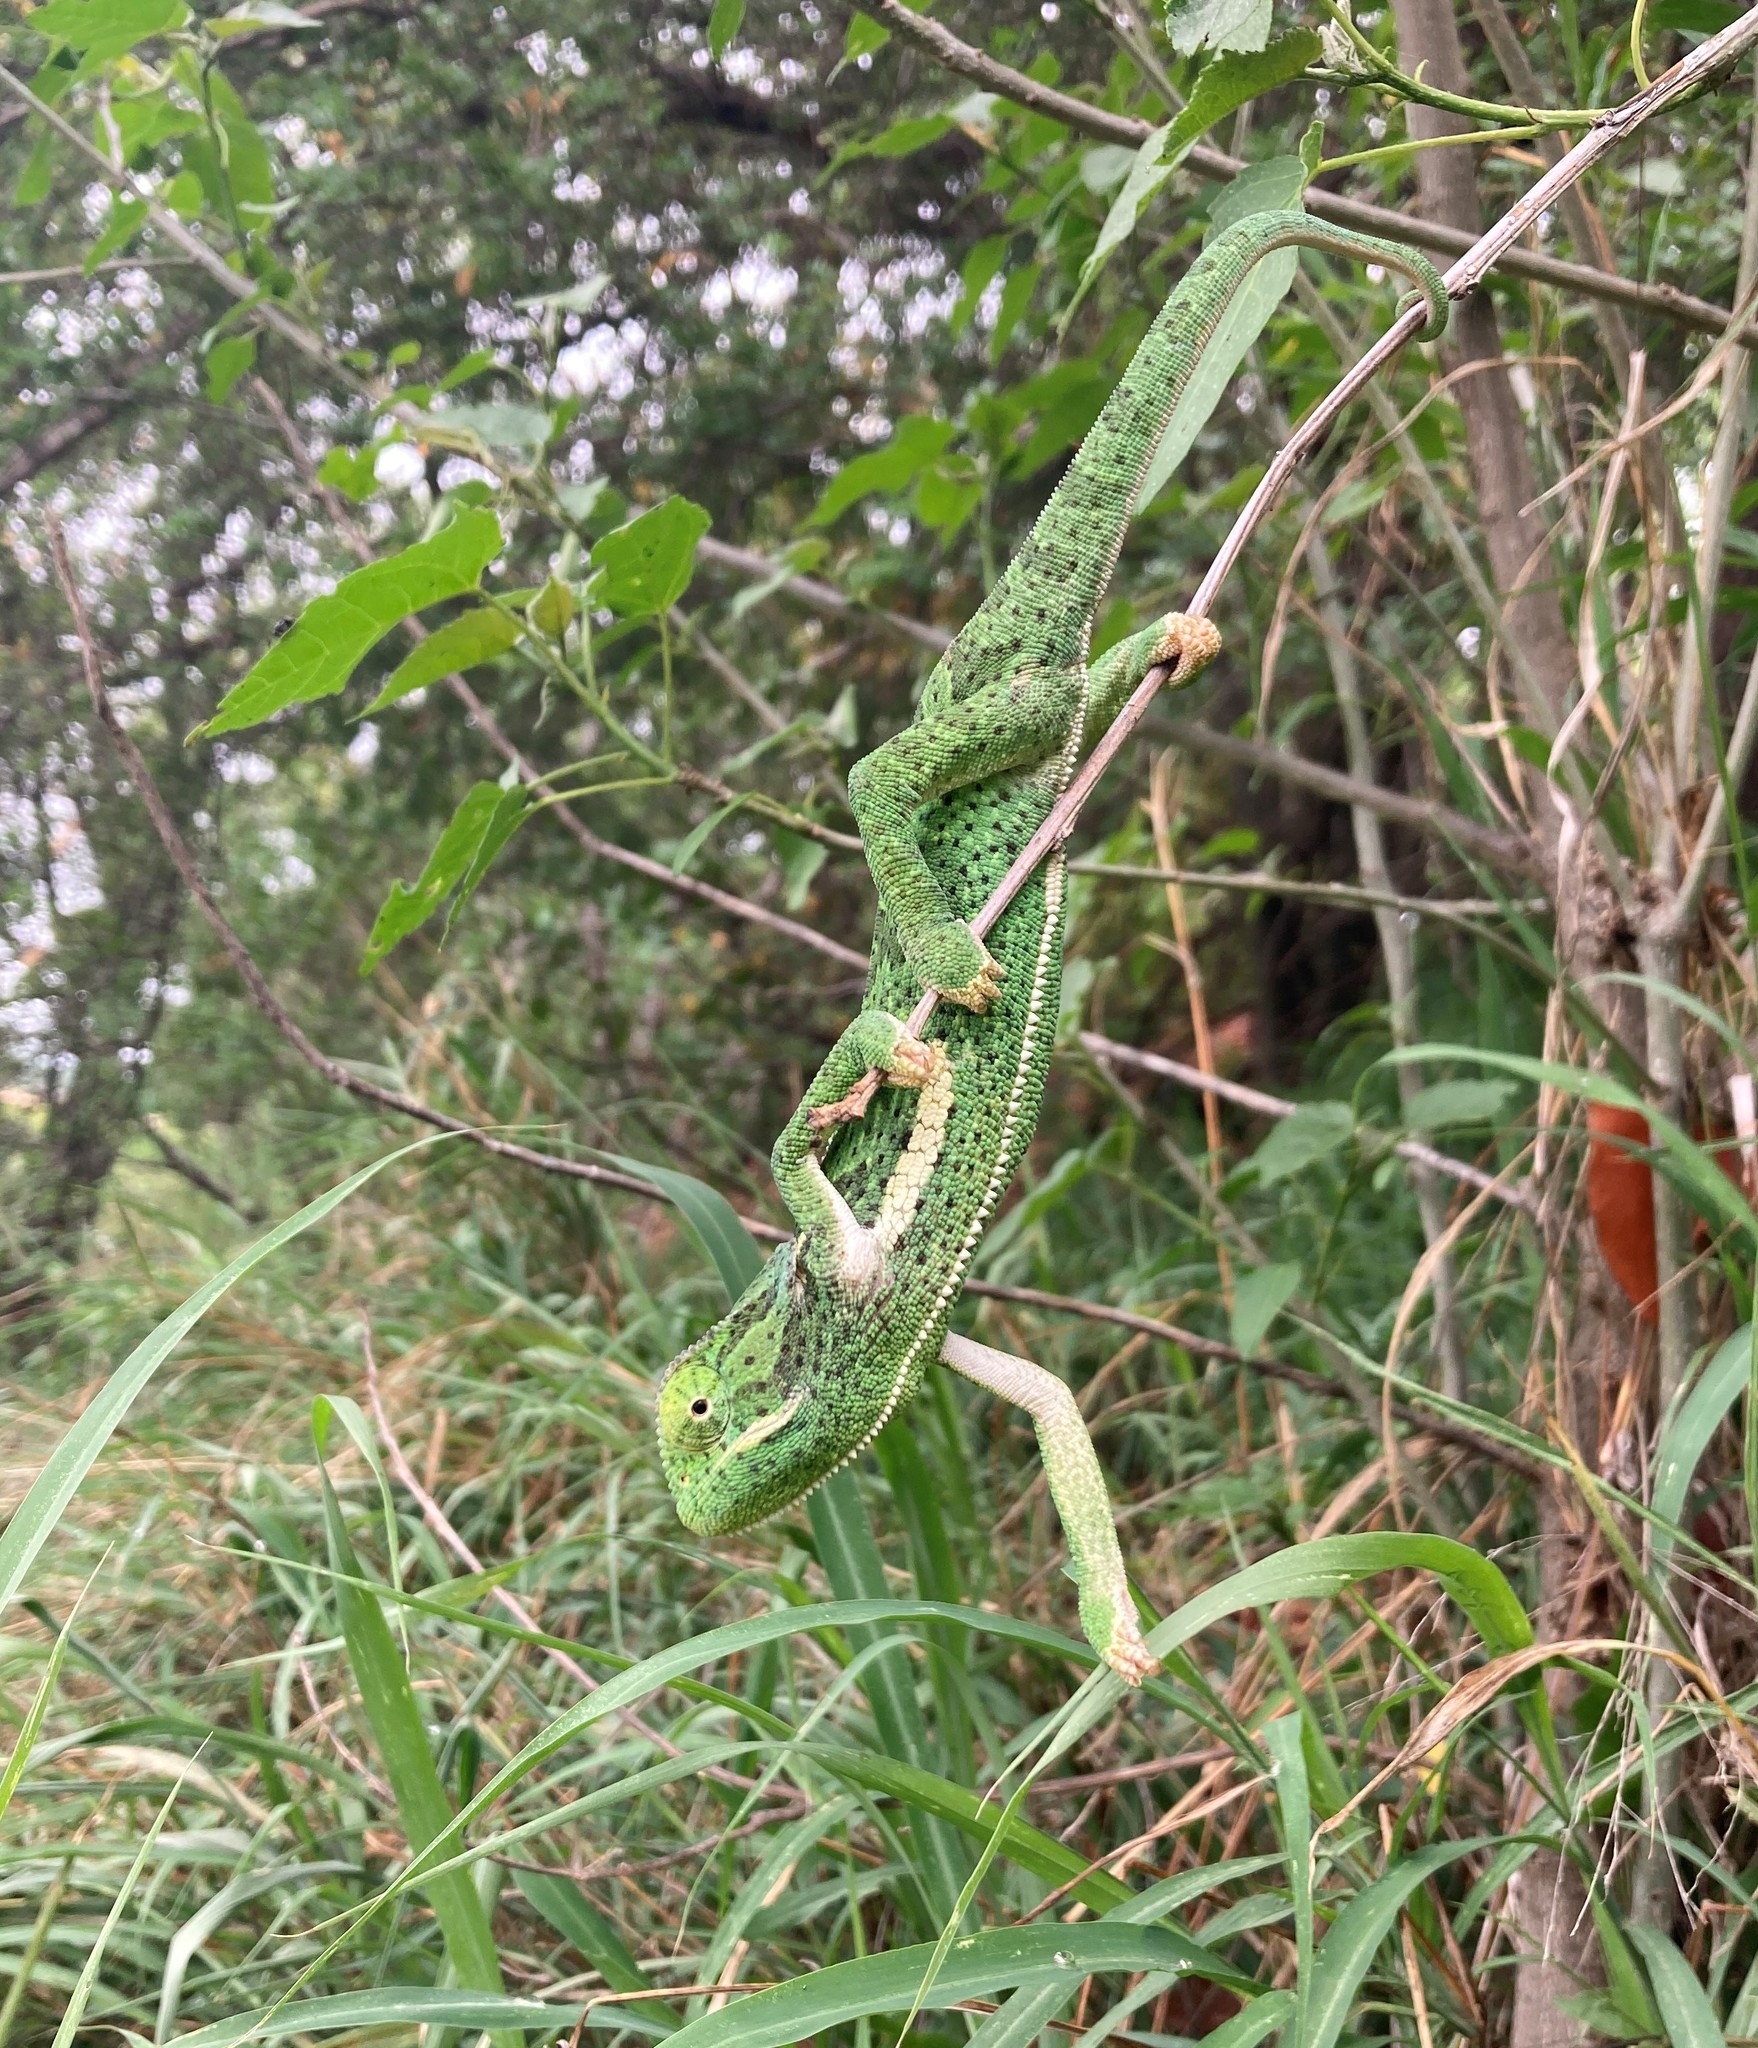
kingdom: Animalia
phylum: Chordata
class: Squamata
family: Chamaeleonidae
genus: Chamaeleo
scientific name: Chamaeleo dilepis
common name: Flapneck chameleon
